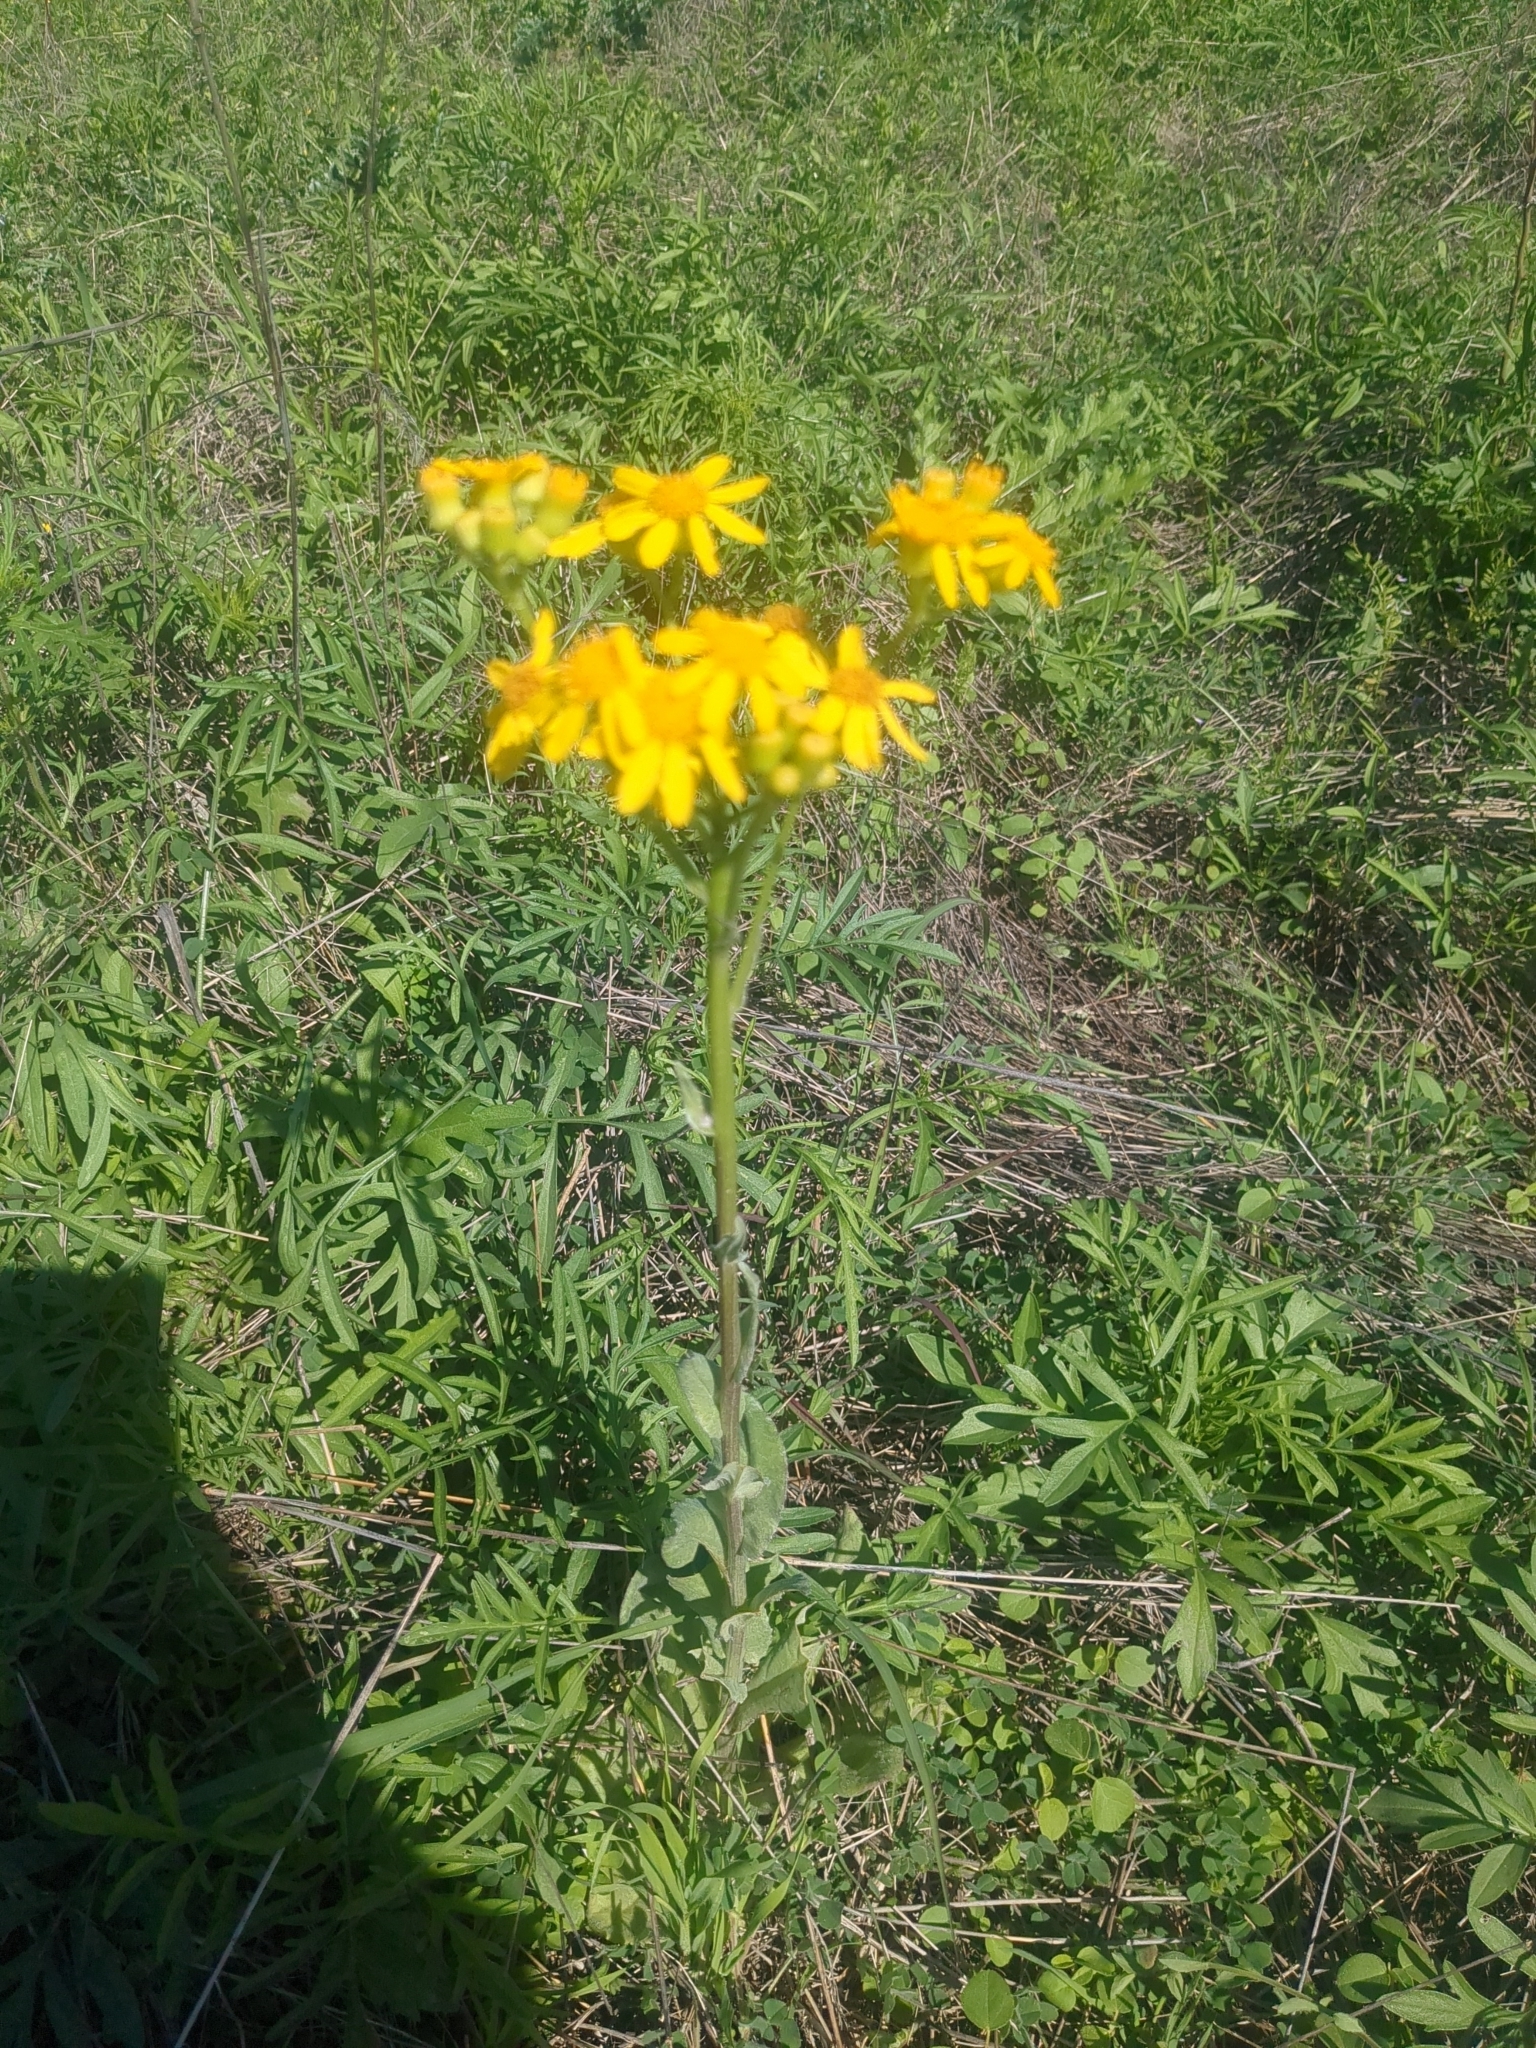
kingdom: Plantae
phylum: Tracheophyta
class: Magnoliopsida
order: Asterales
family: Asteraceae
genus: Senecio
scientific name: Senecio ampullaceus
